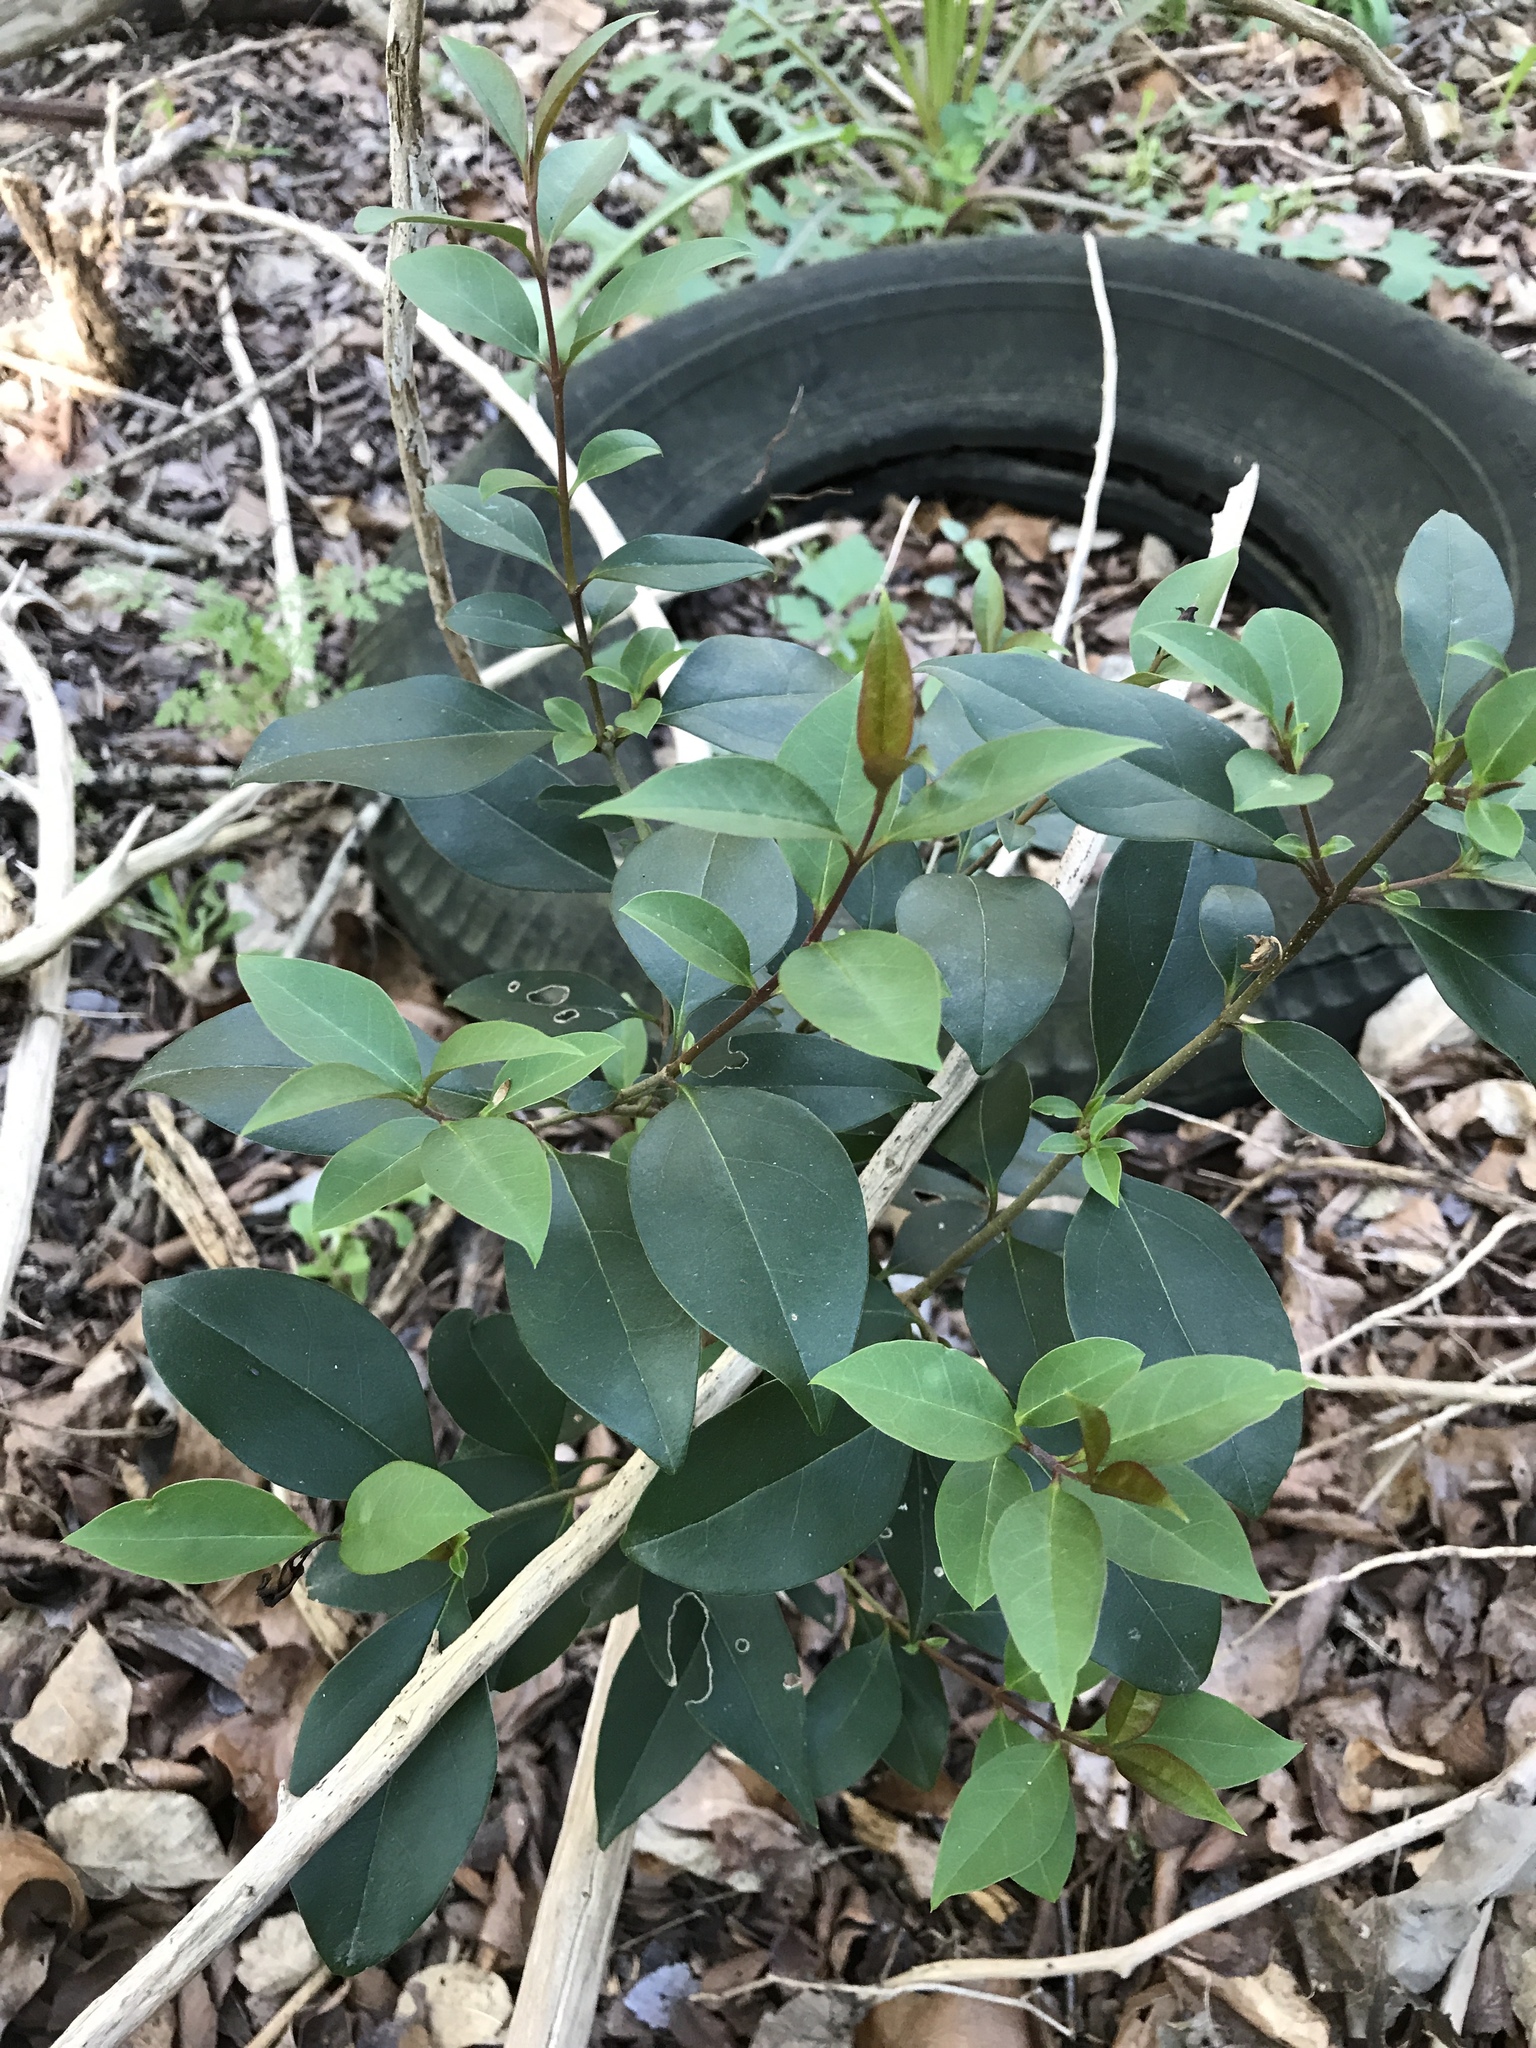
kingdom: Plantae
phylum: Tracheophyta
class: Magnoliopsida
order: Lamiales
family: Oleaceae
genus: Ligustrum
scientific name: Ligustrum lucidum
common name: Glossy privet
